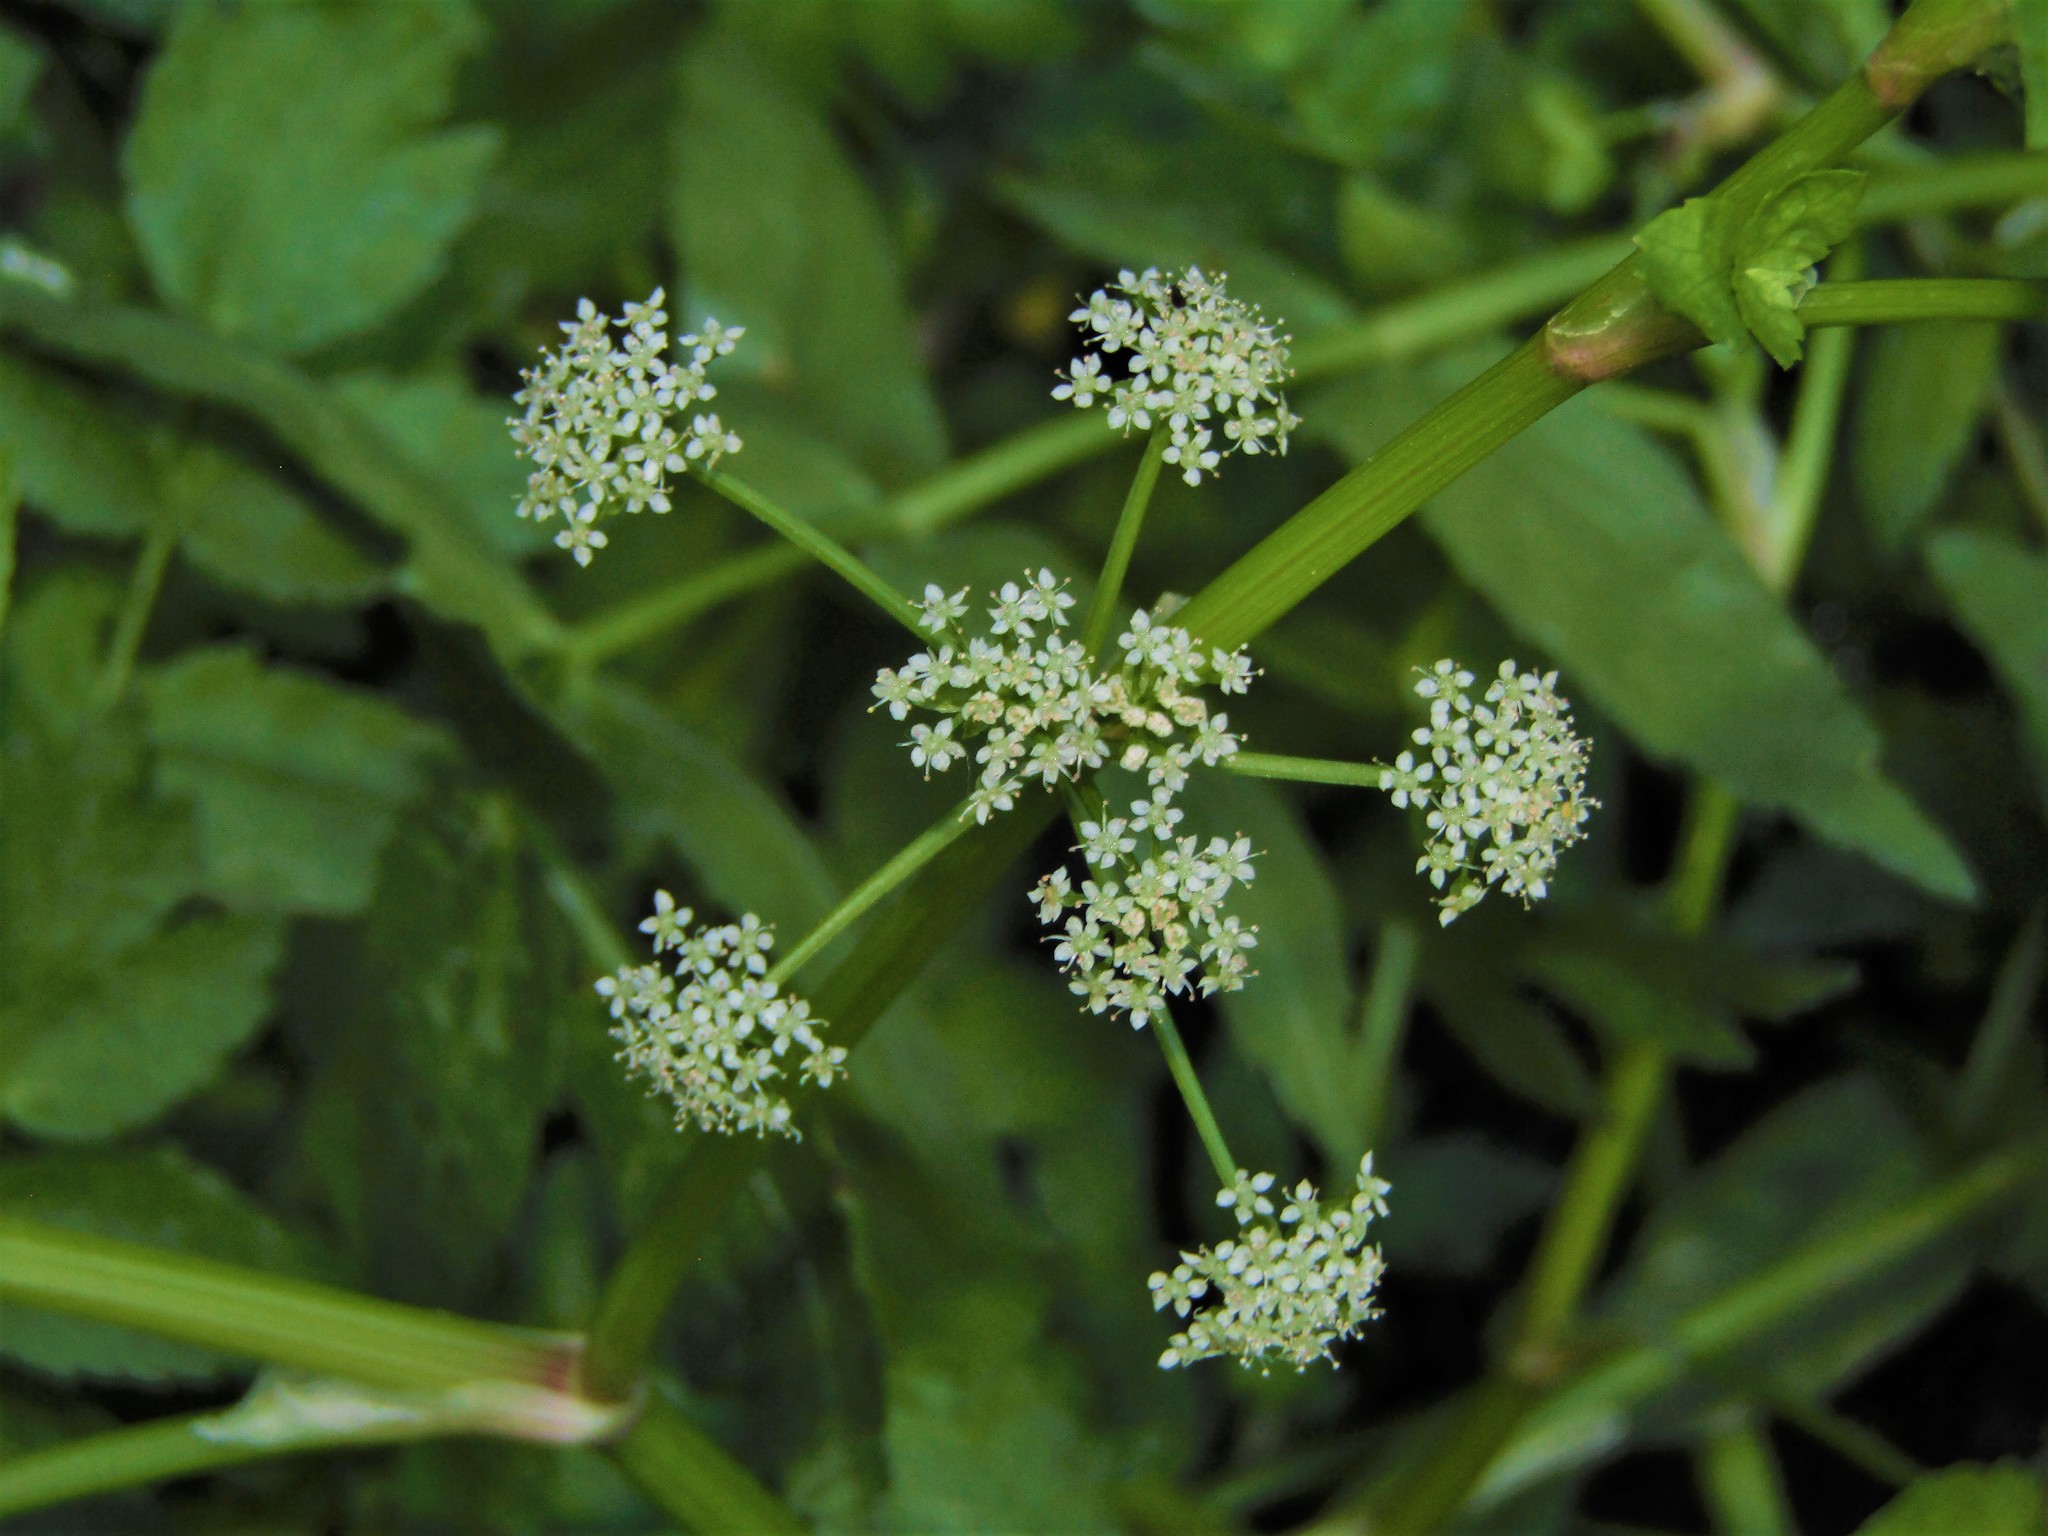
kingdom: Plantae
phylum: Tracheophyta
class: Magnoliopsida
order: Apiales
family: Apiaceae
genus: Helosciadium
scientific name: Helosciadium nodiflorum
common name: Fool's-watercress
